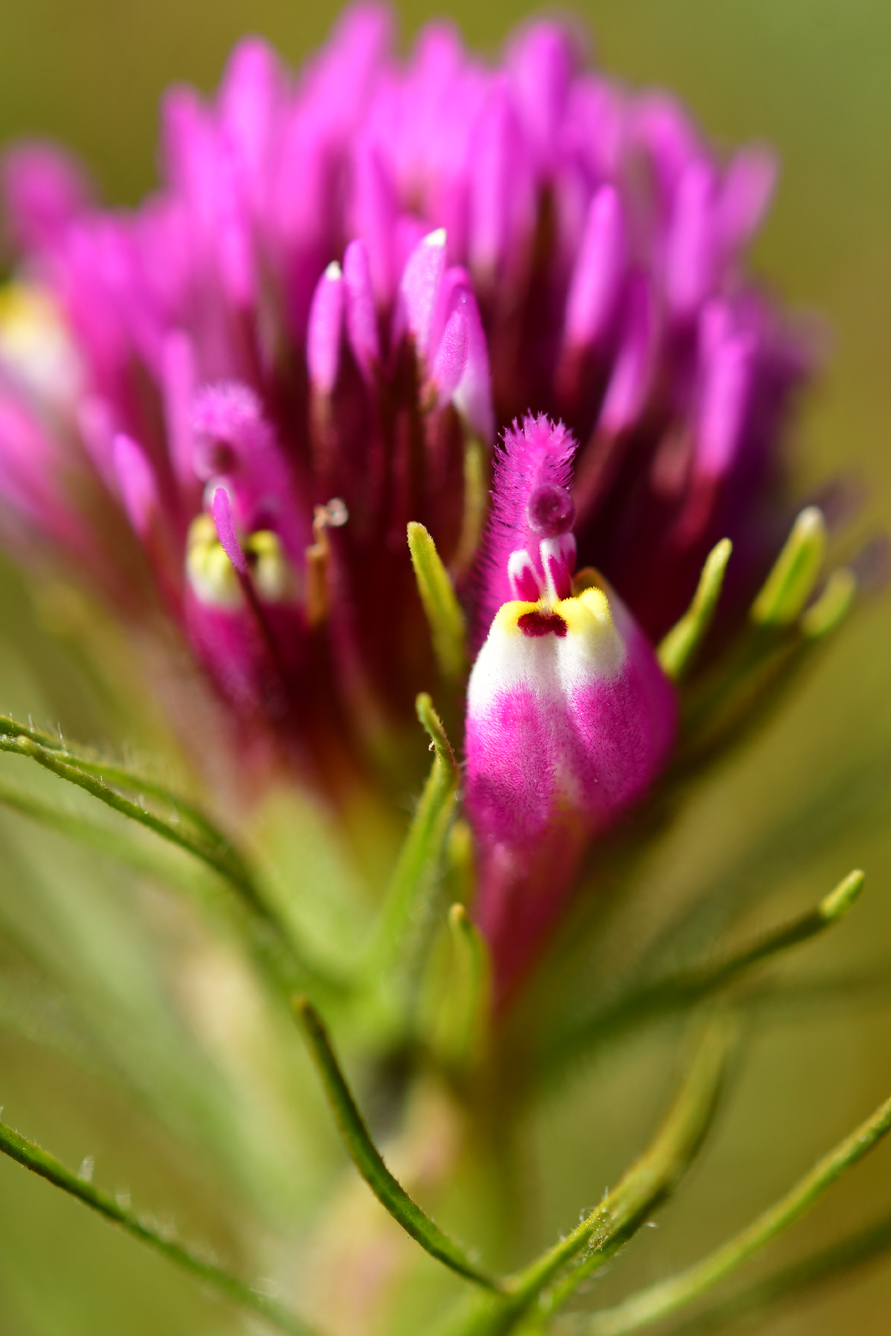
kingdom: Plantae
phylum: Tracheophyta
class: Magnoliopsida
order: Lamiales
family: Orobanchaceae
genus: Castilleja
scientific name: Castilleja exserta
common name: Purple owl-clover
